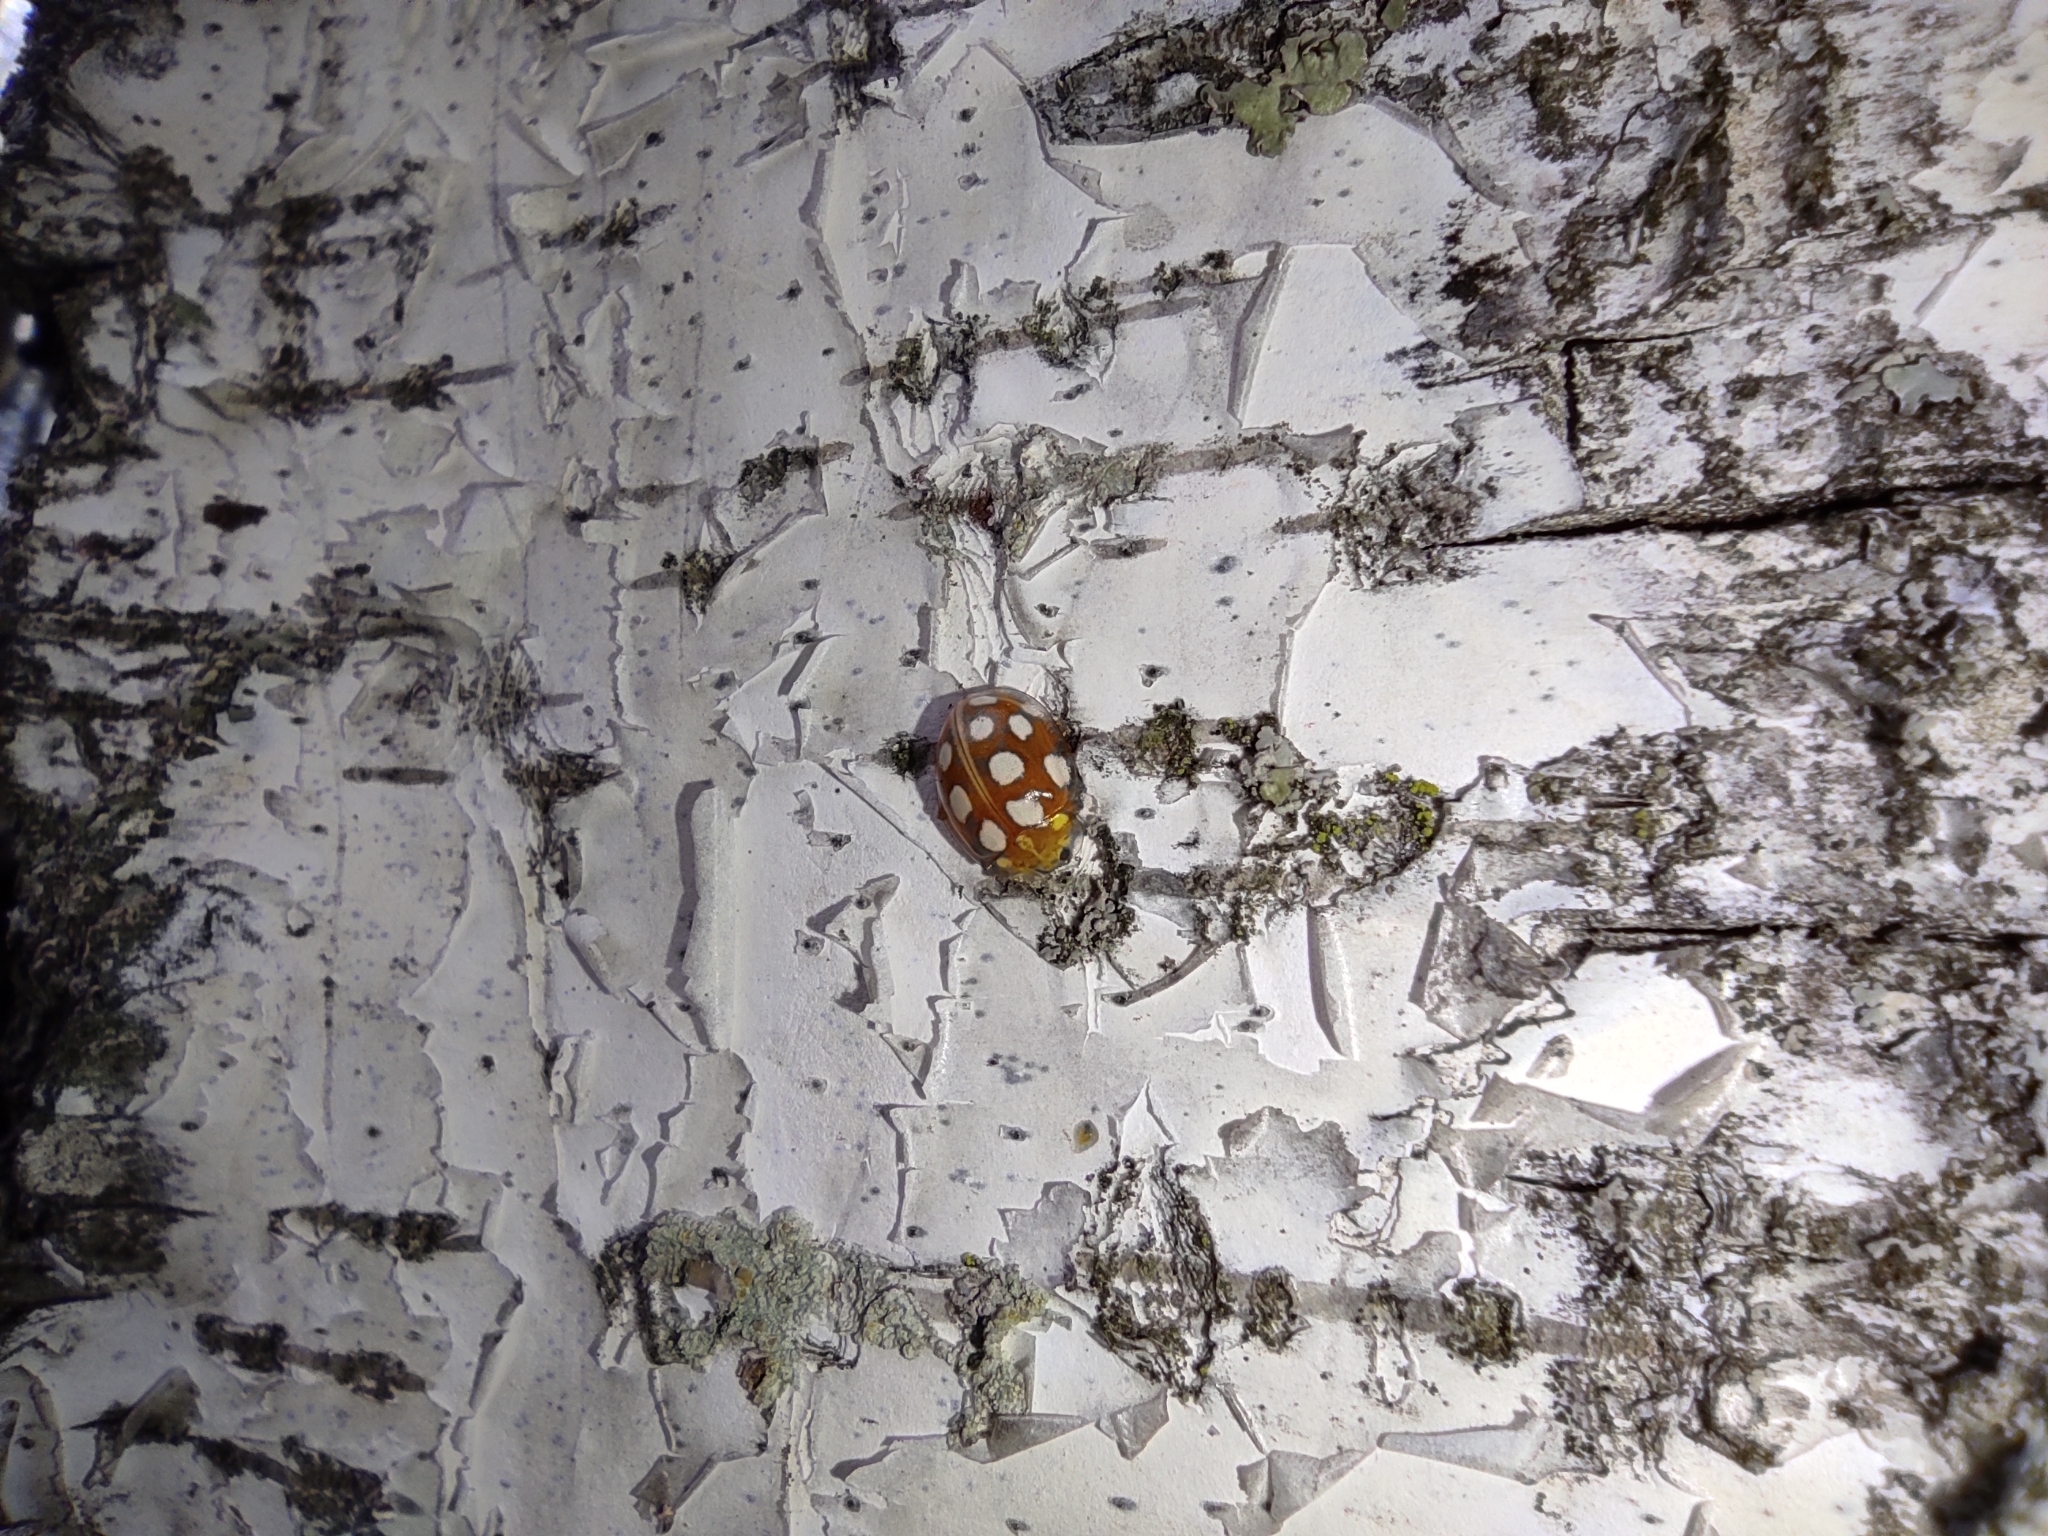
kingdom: Animalia
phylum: Arthropoda
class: Insecta
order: Coleoptera
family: Coccinellidae
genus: Halyzia
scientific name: Halyzia sedecimguttata
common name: Orange ladybird
